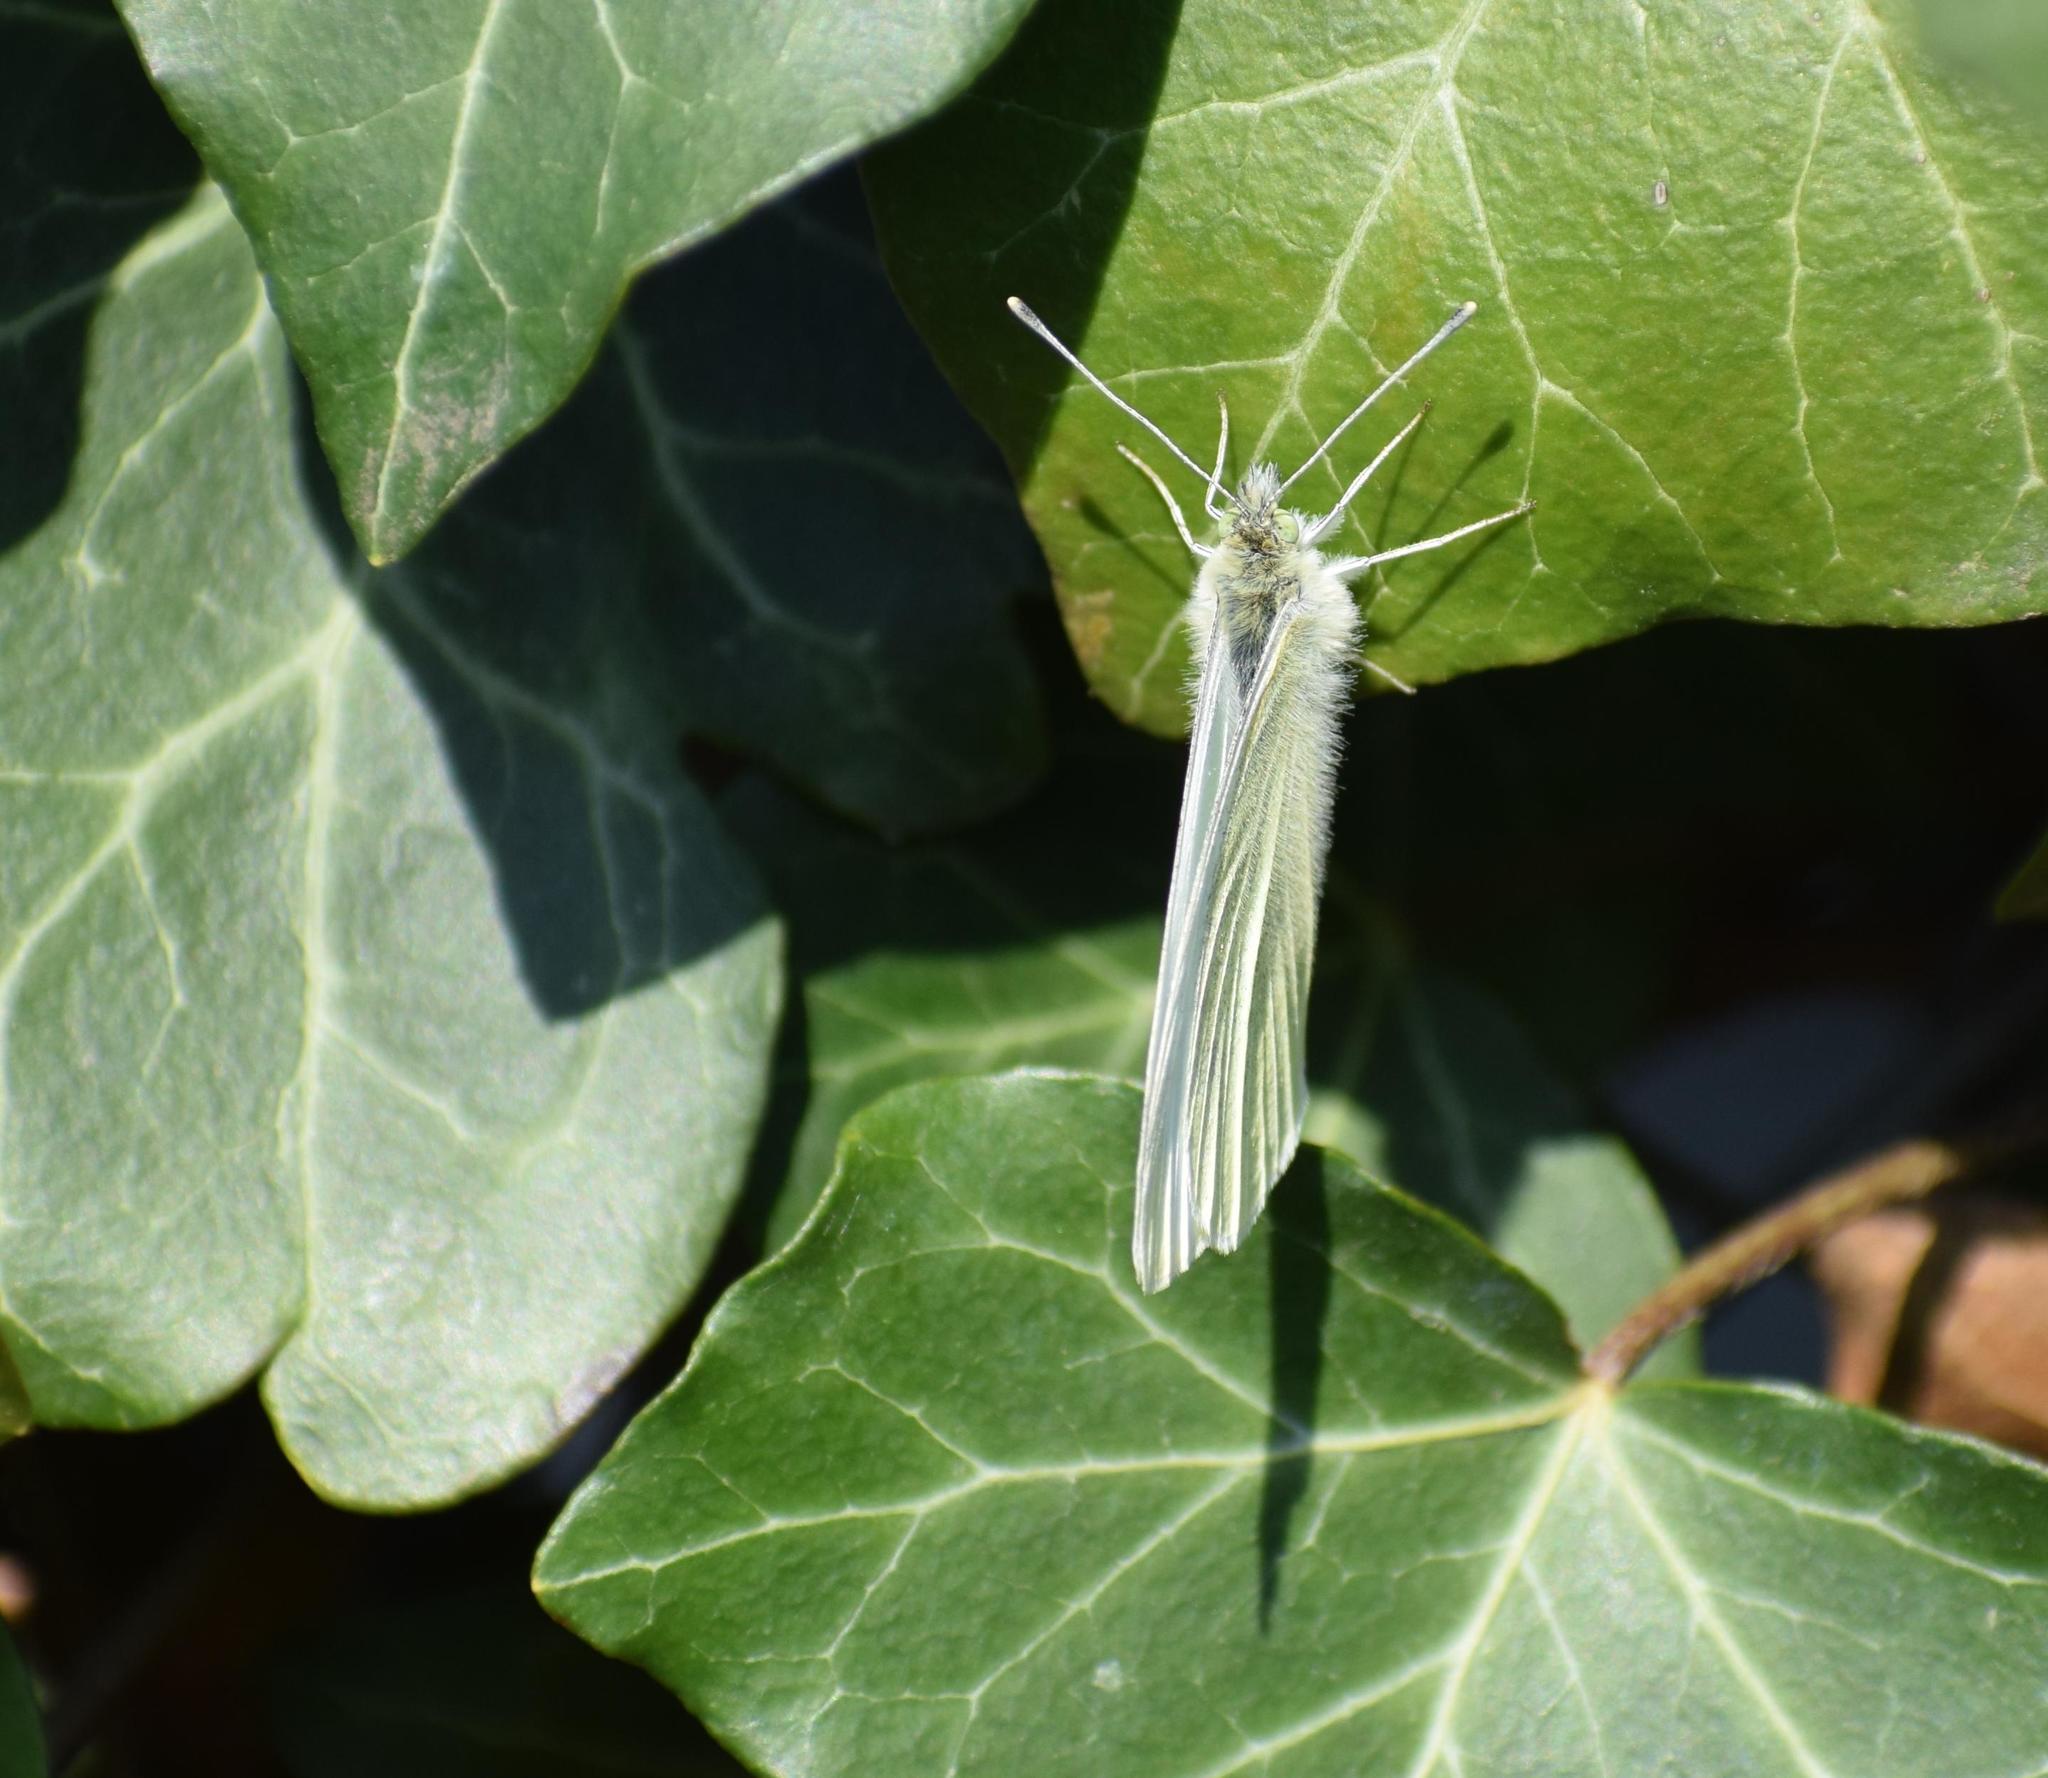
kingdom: Animalia
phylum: Arthropoda
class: Insecta
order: Lepidoptera
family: Pieridae
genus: Pieris
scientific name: Pieris rapae
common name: Small white
